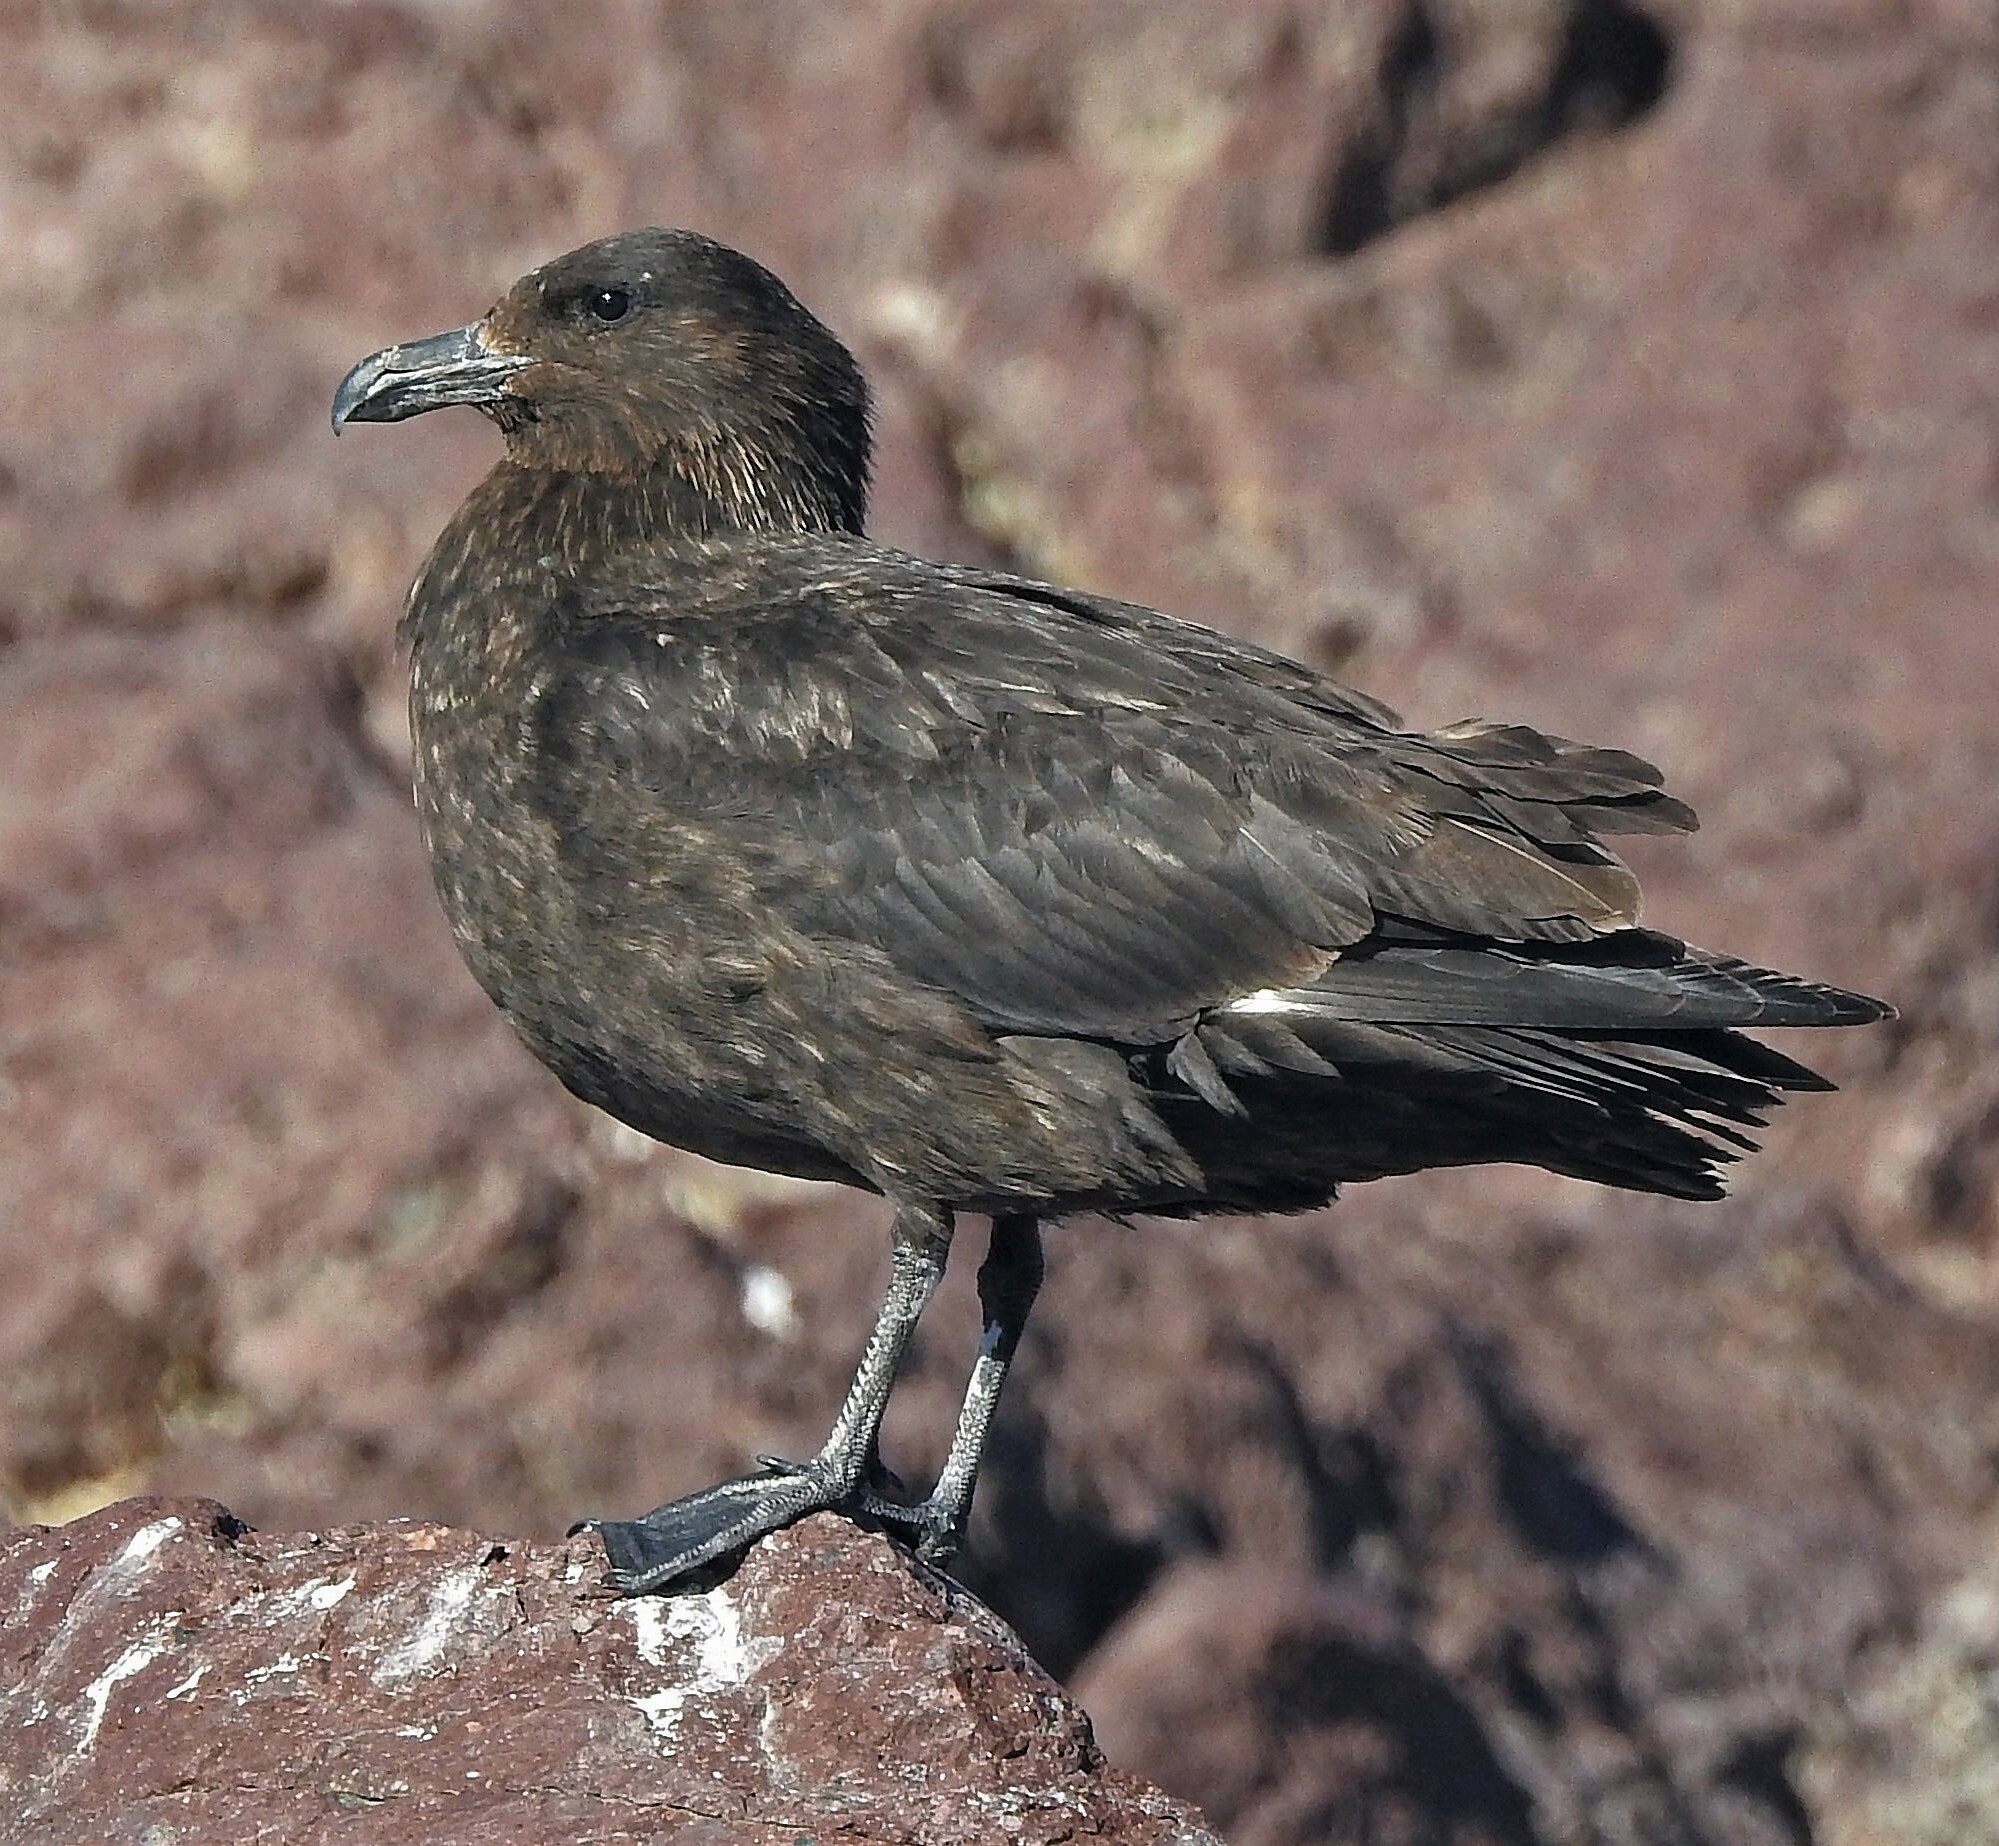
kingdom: Animalia
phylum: Chordata
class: Aves
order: Charadriiformes
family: Stercorariidae
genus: Stercorarius
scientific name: Stercorarius antarcticus
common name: Brown skua
